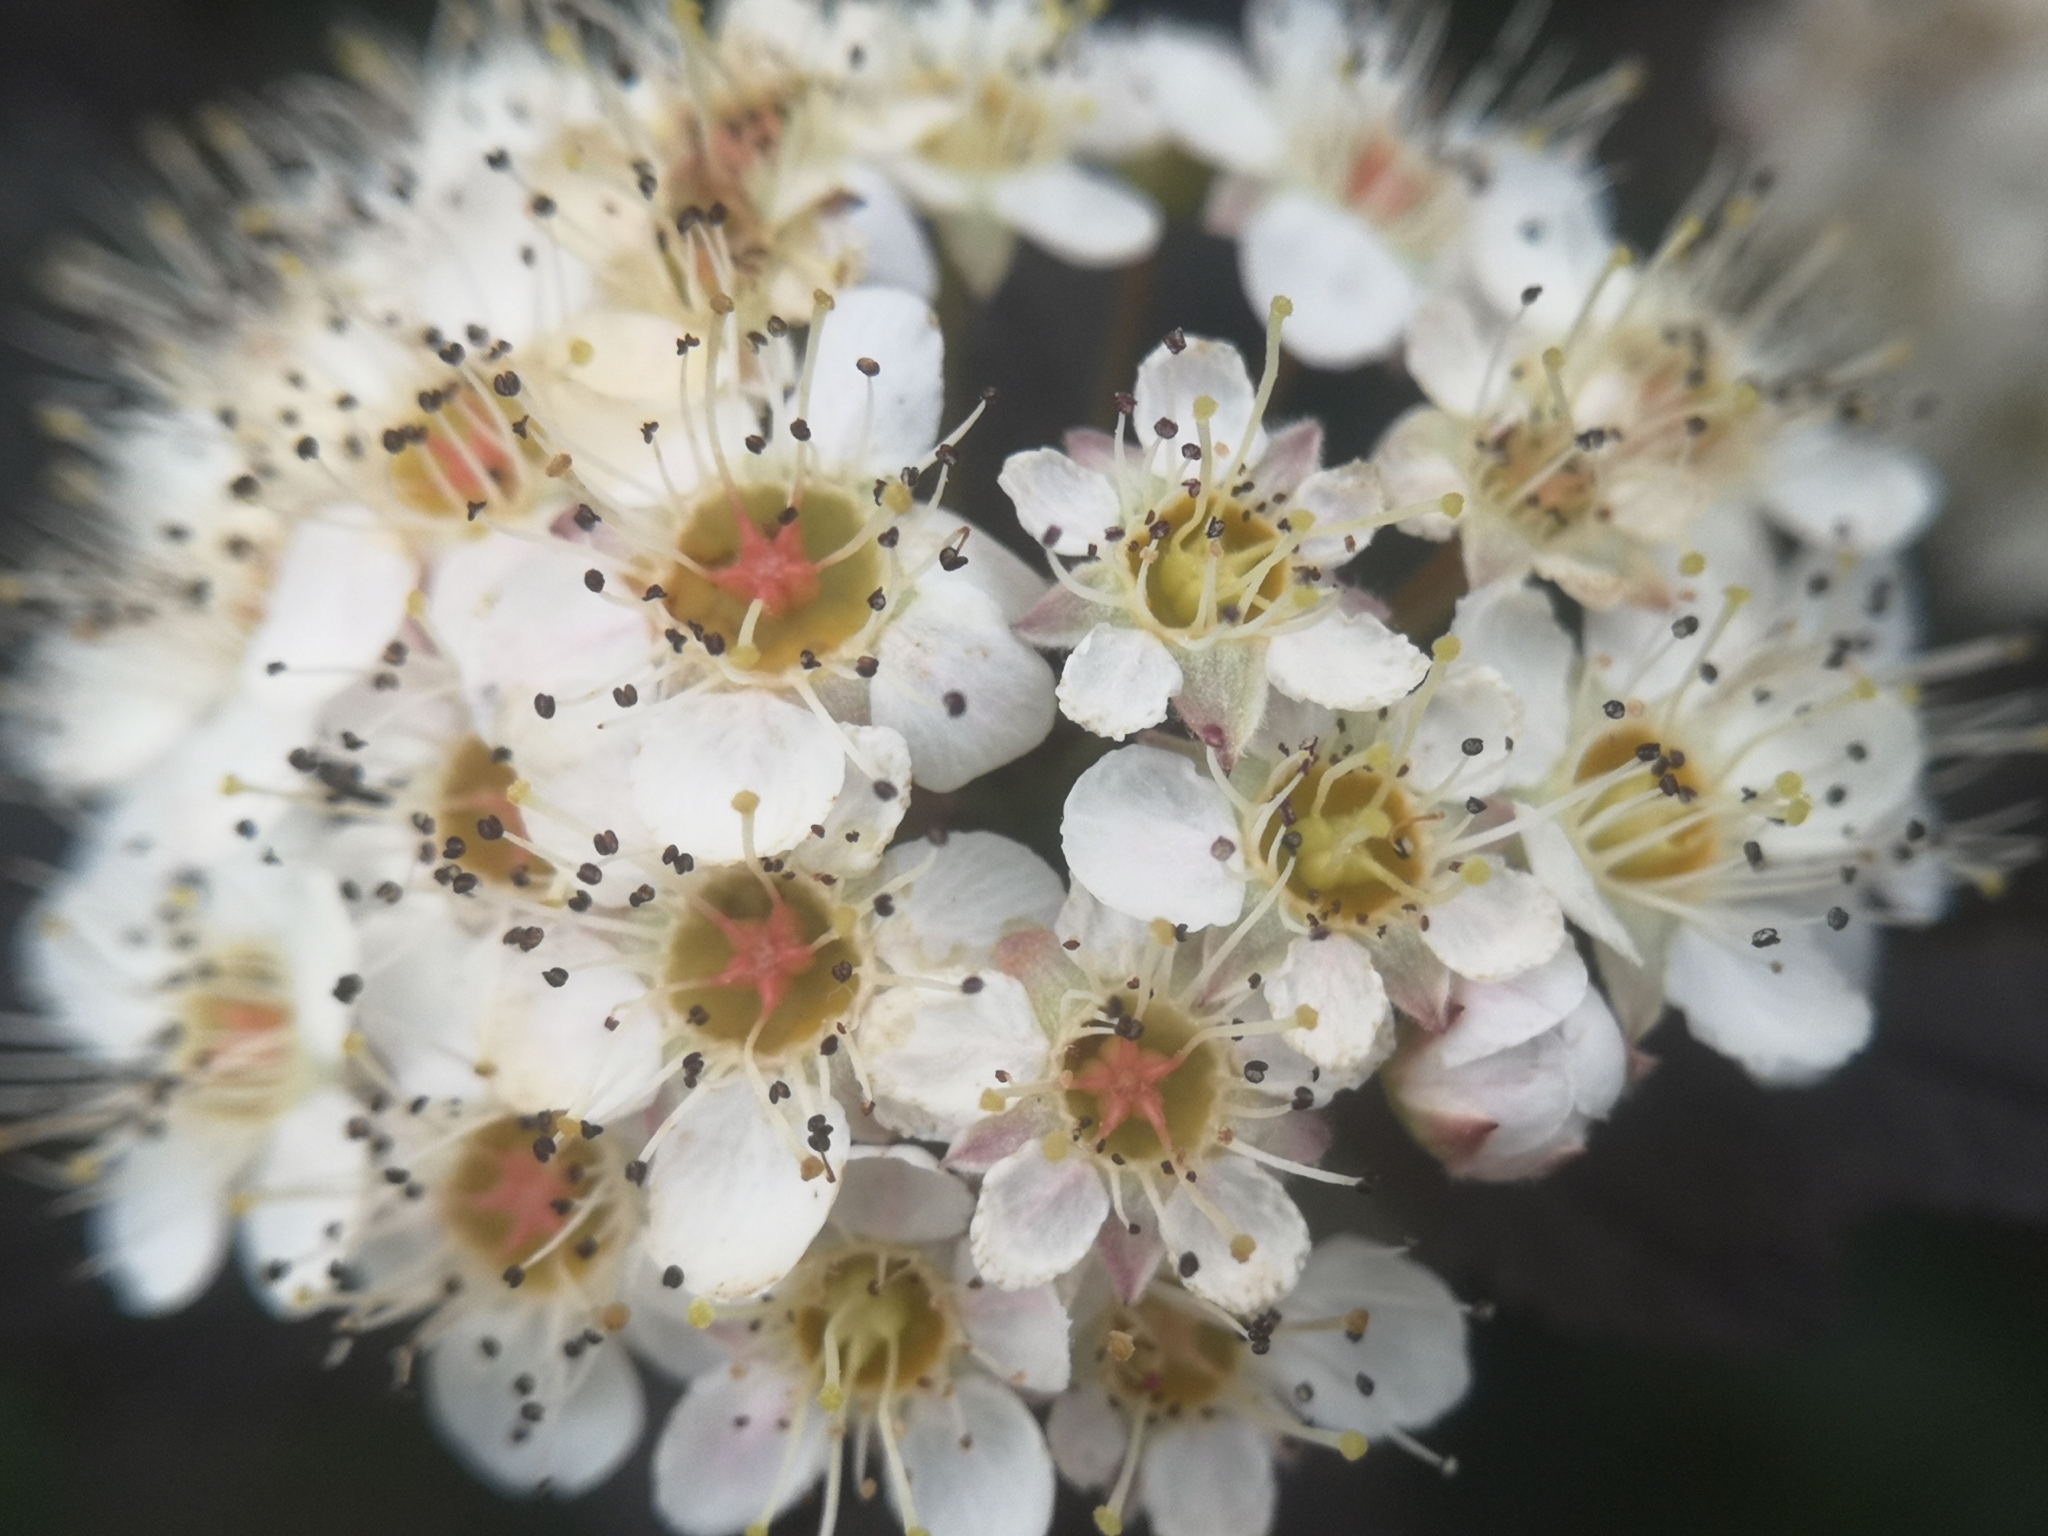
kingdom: Plantae
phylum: Tracheophyta
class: Magnoliopsida
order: Rosales
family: Rosaceae
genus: Physocarpus
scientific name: Physocarpus opulifolius
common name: Ninebark
